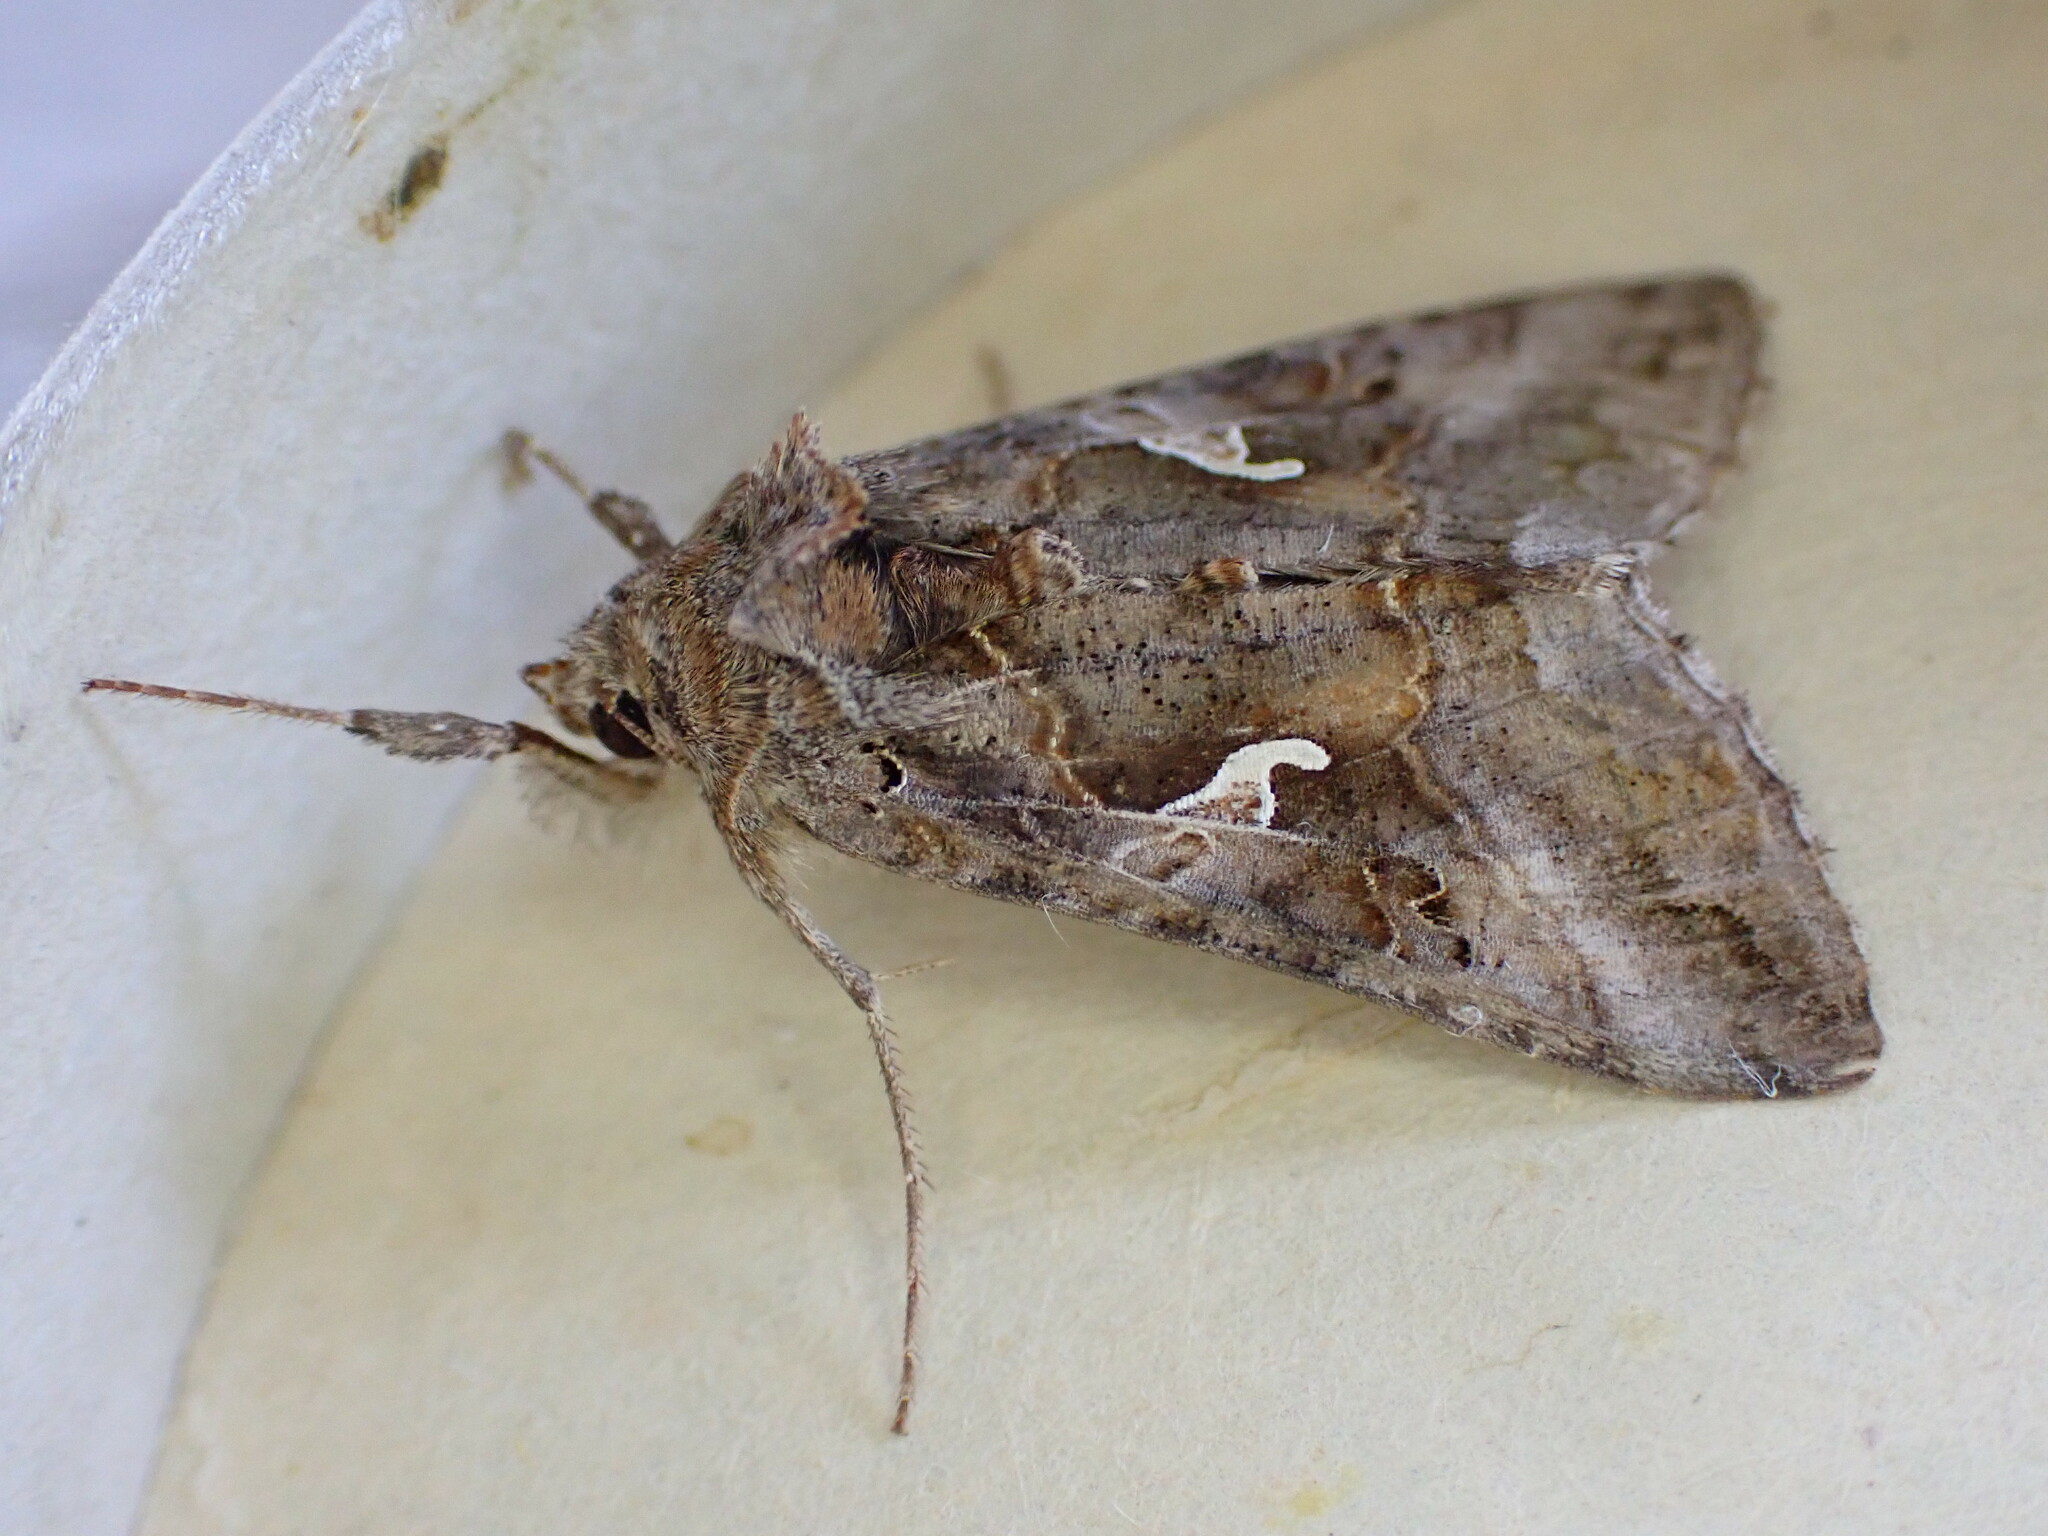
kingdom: Animalia
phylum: Arthropoda
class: Insecta
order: Lepidoptera
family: Noctuidae
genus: Autographa
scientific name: Autographa gamma
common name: Silver y
